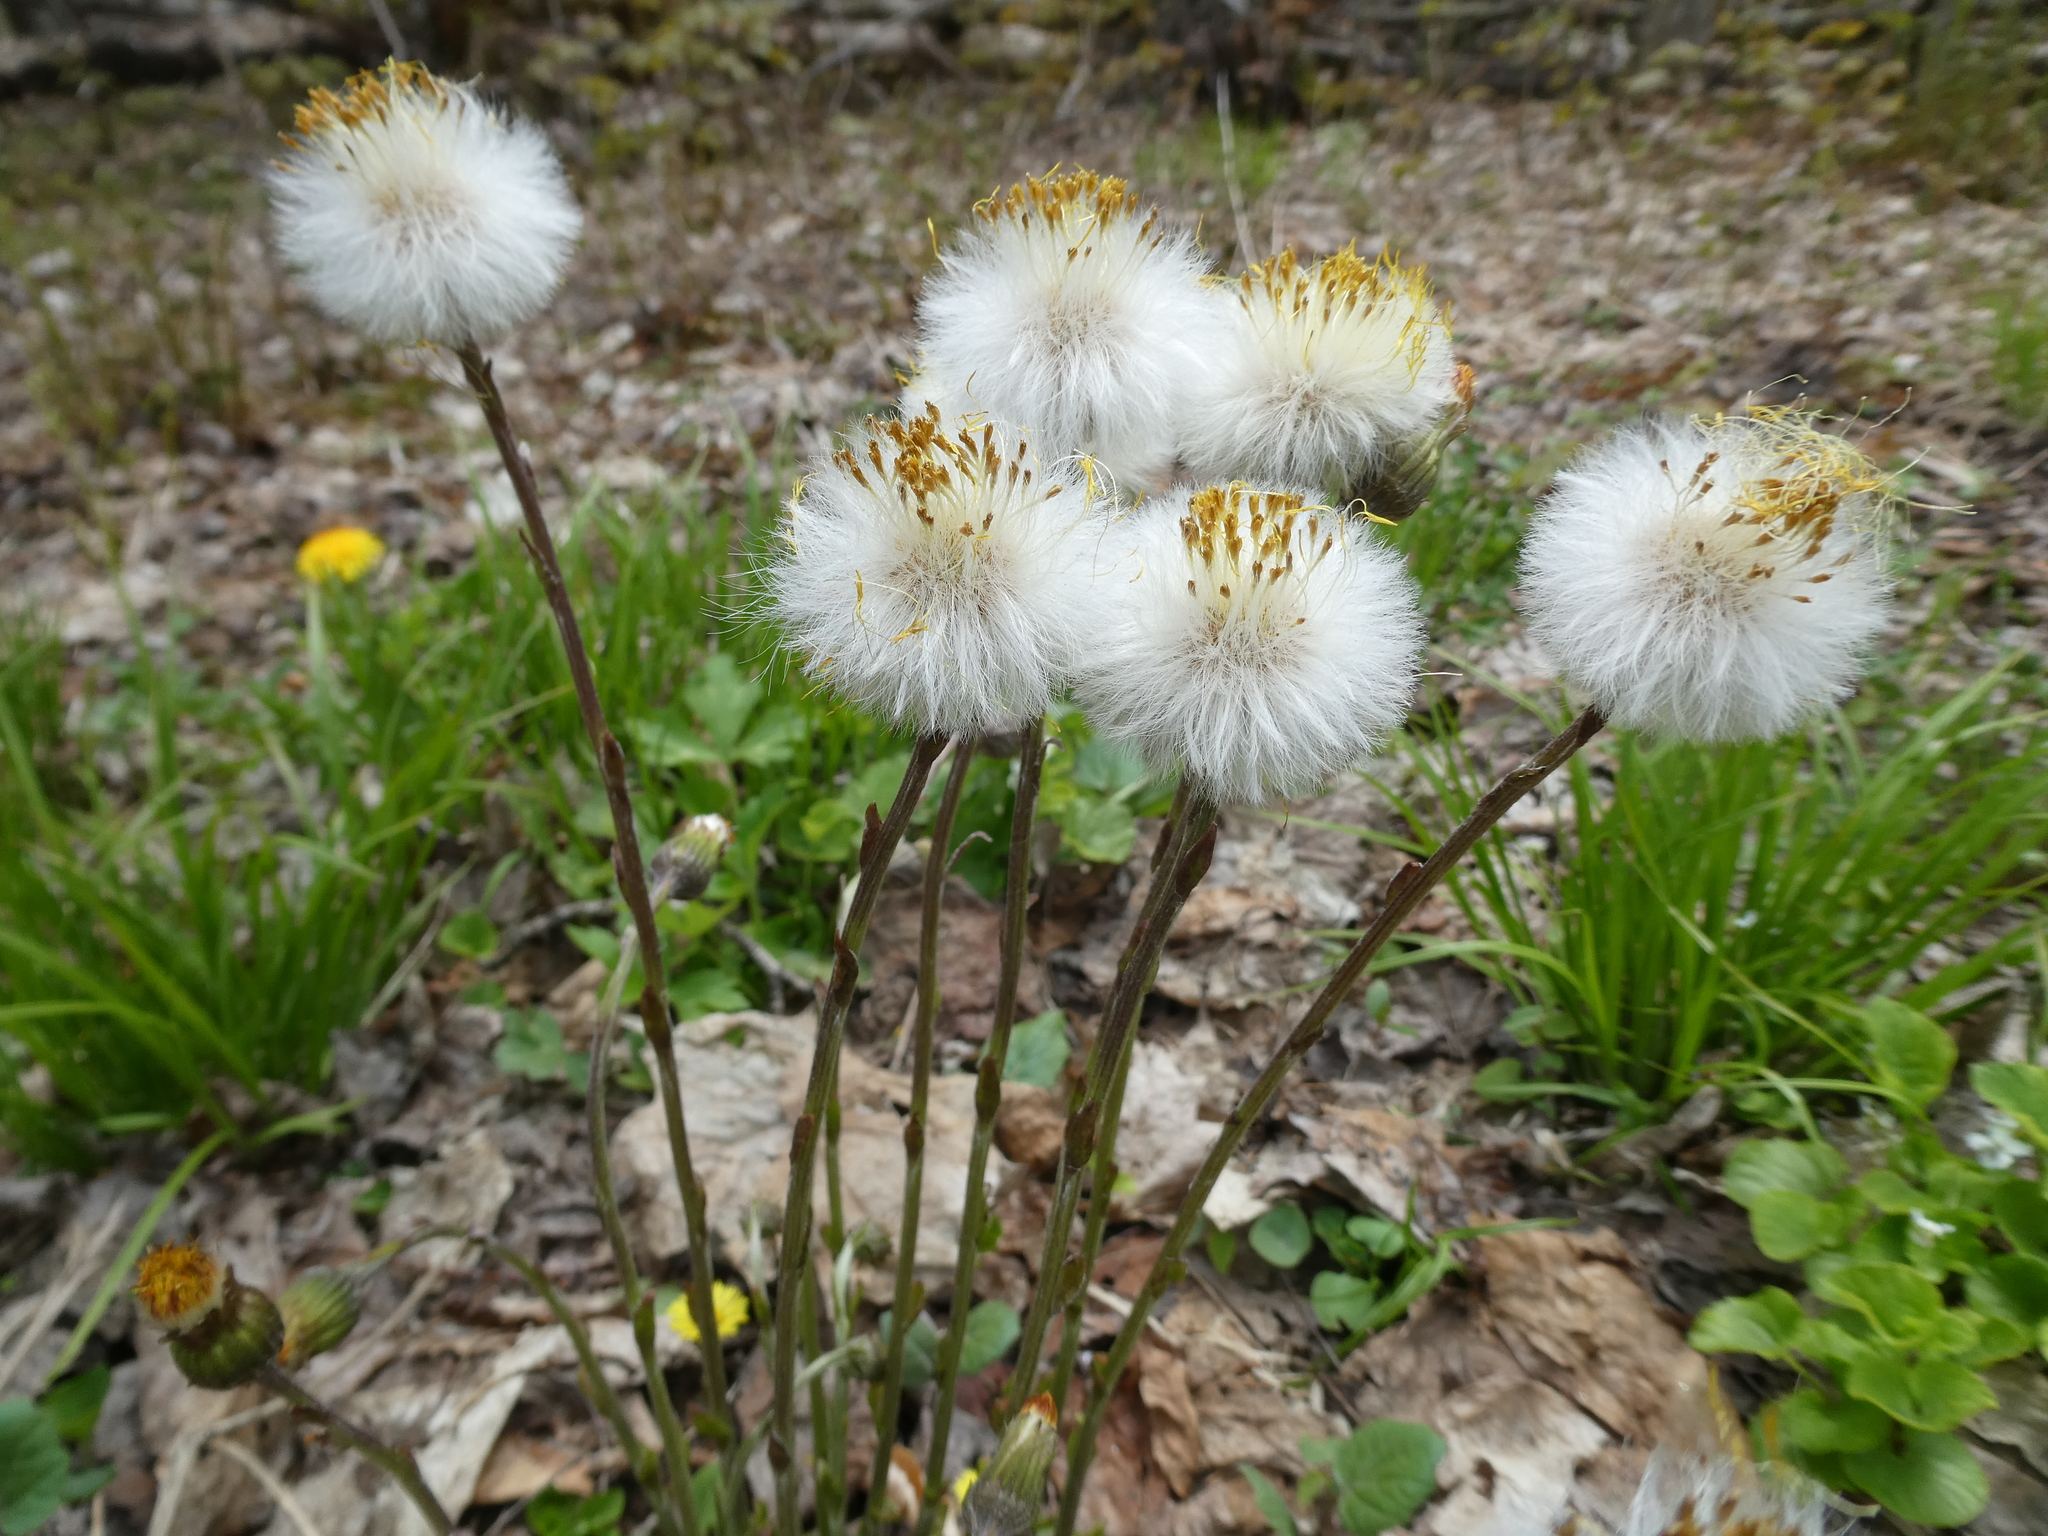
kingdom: Plantae
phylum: Tracheophyta
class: Magnoliopsida
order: Asterales
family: Asteraceae
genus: Tussilago
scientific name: Tussilago farfara
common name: Coltsfoot
